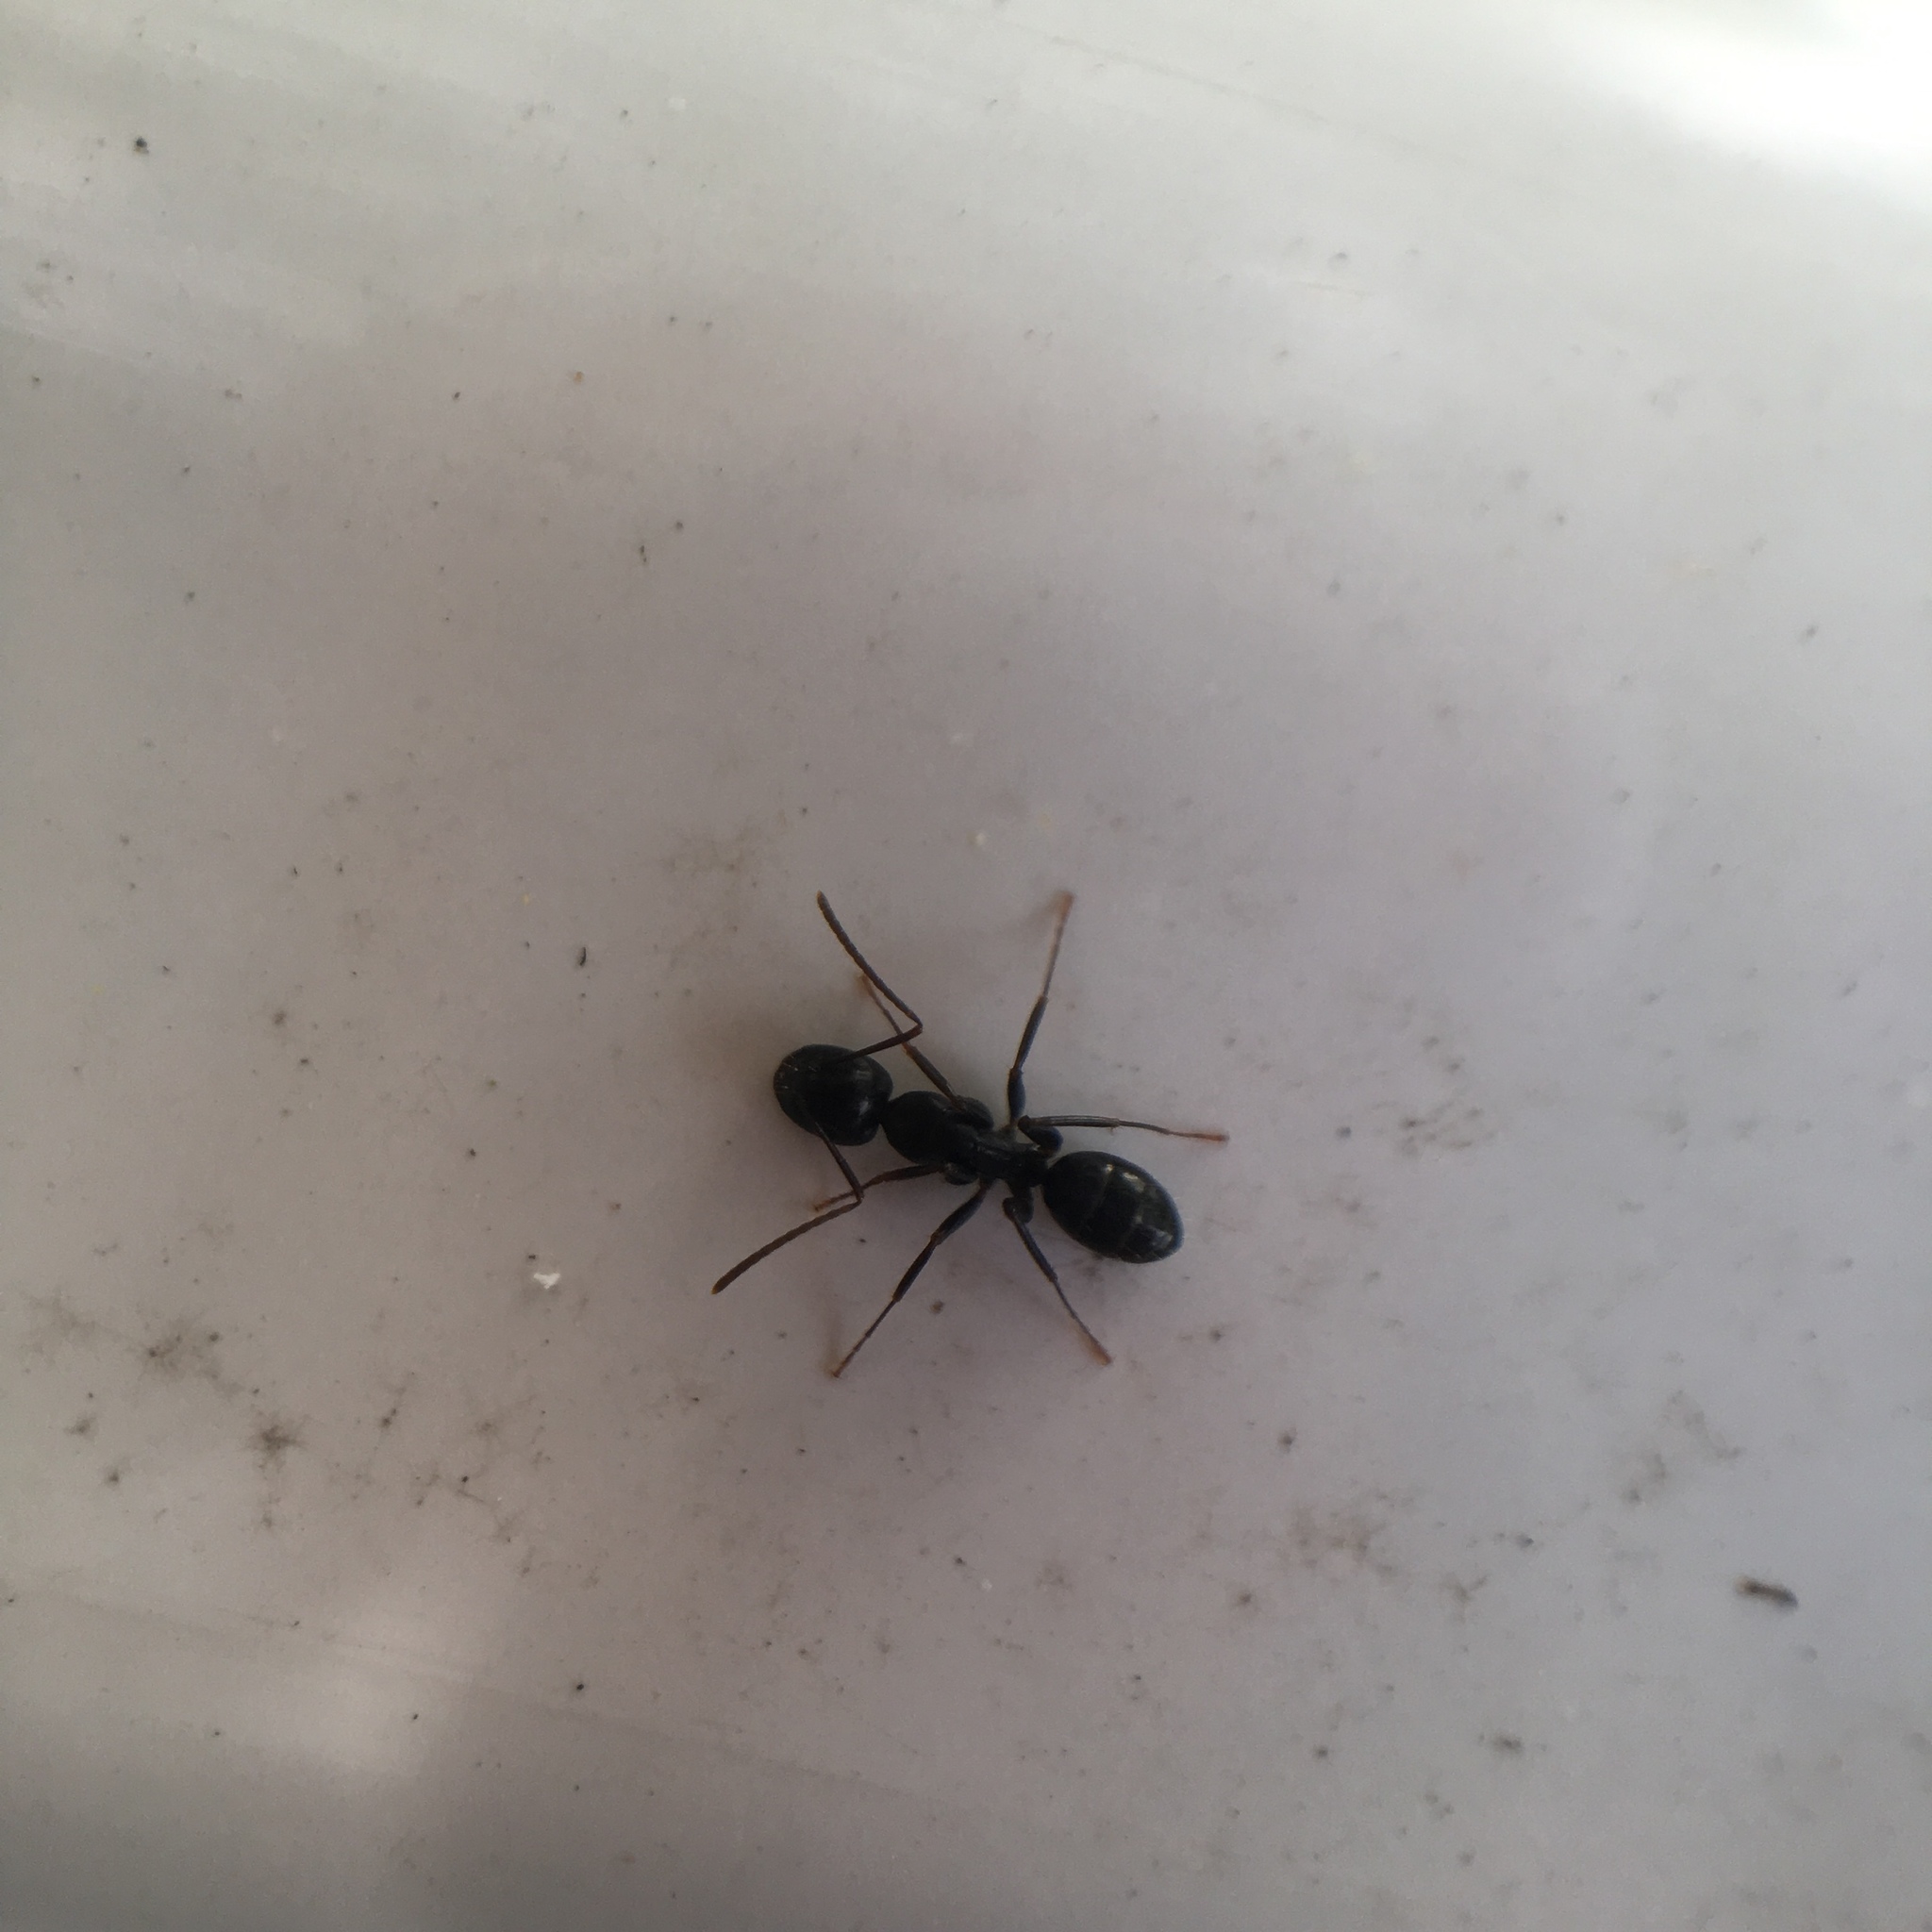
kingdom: Animalia
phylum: Arthropoda
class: Insecta
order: Hymenoptera
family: Formicidae
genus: Camponotus
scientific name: Camponotus nearcticus
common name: Smaller carpenter ant
